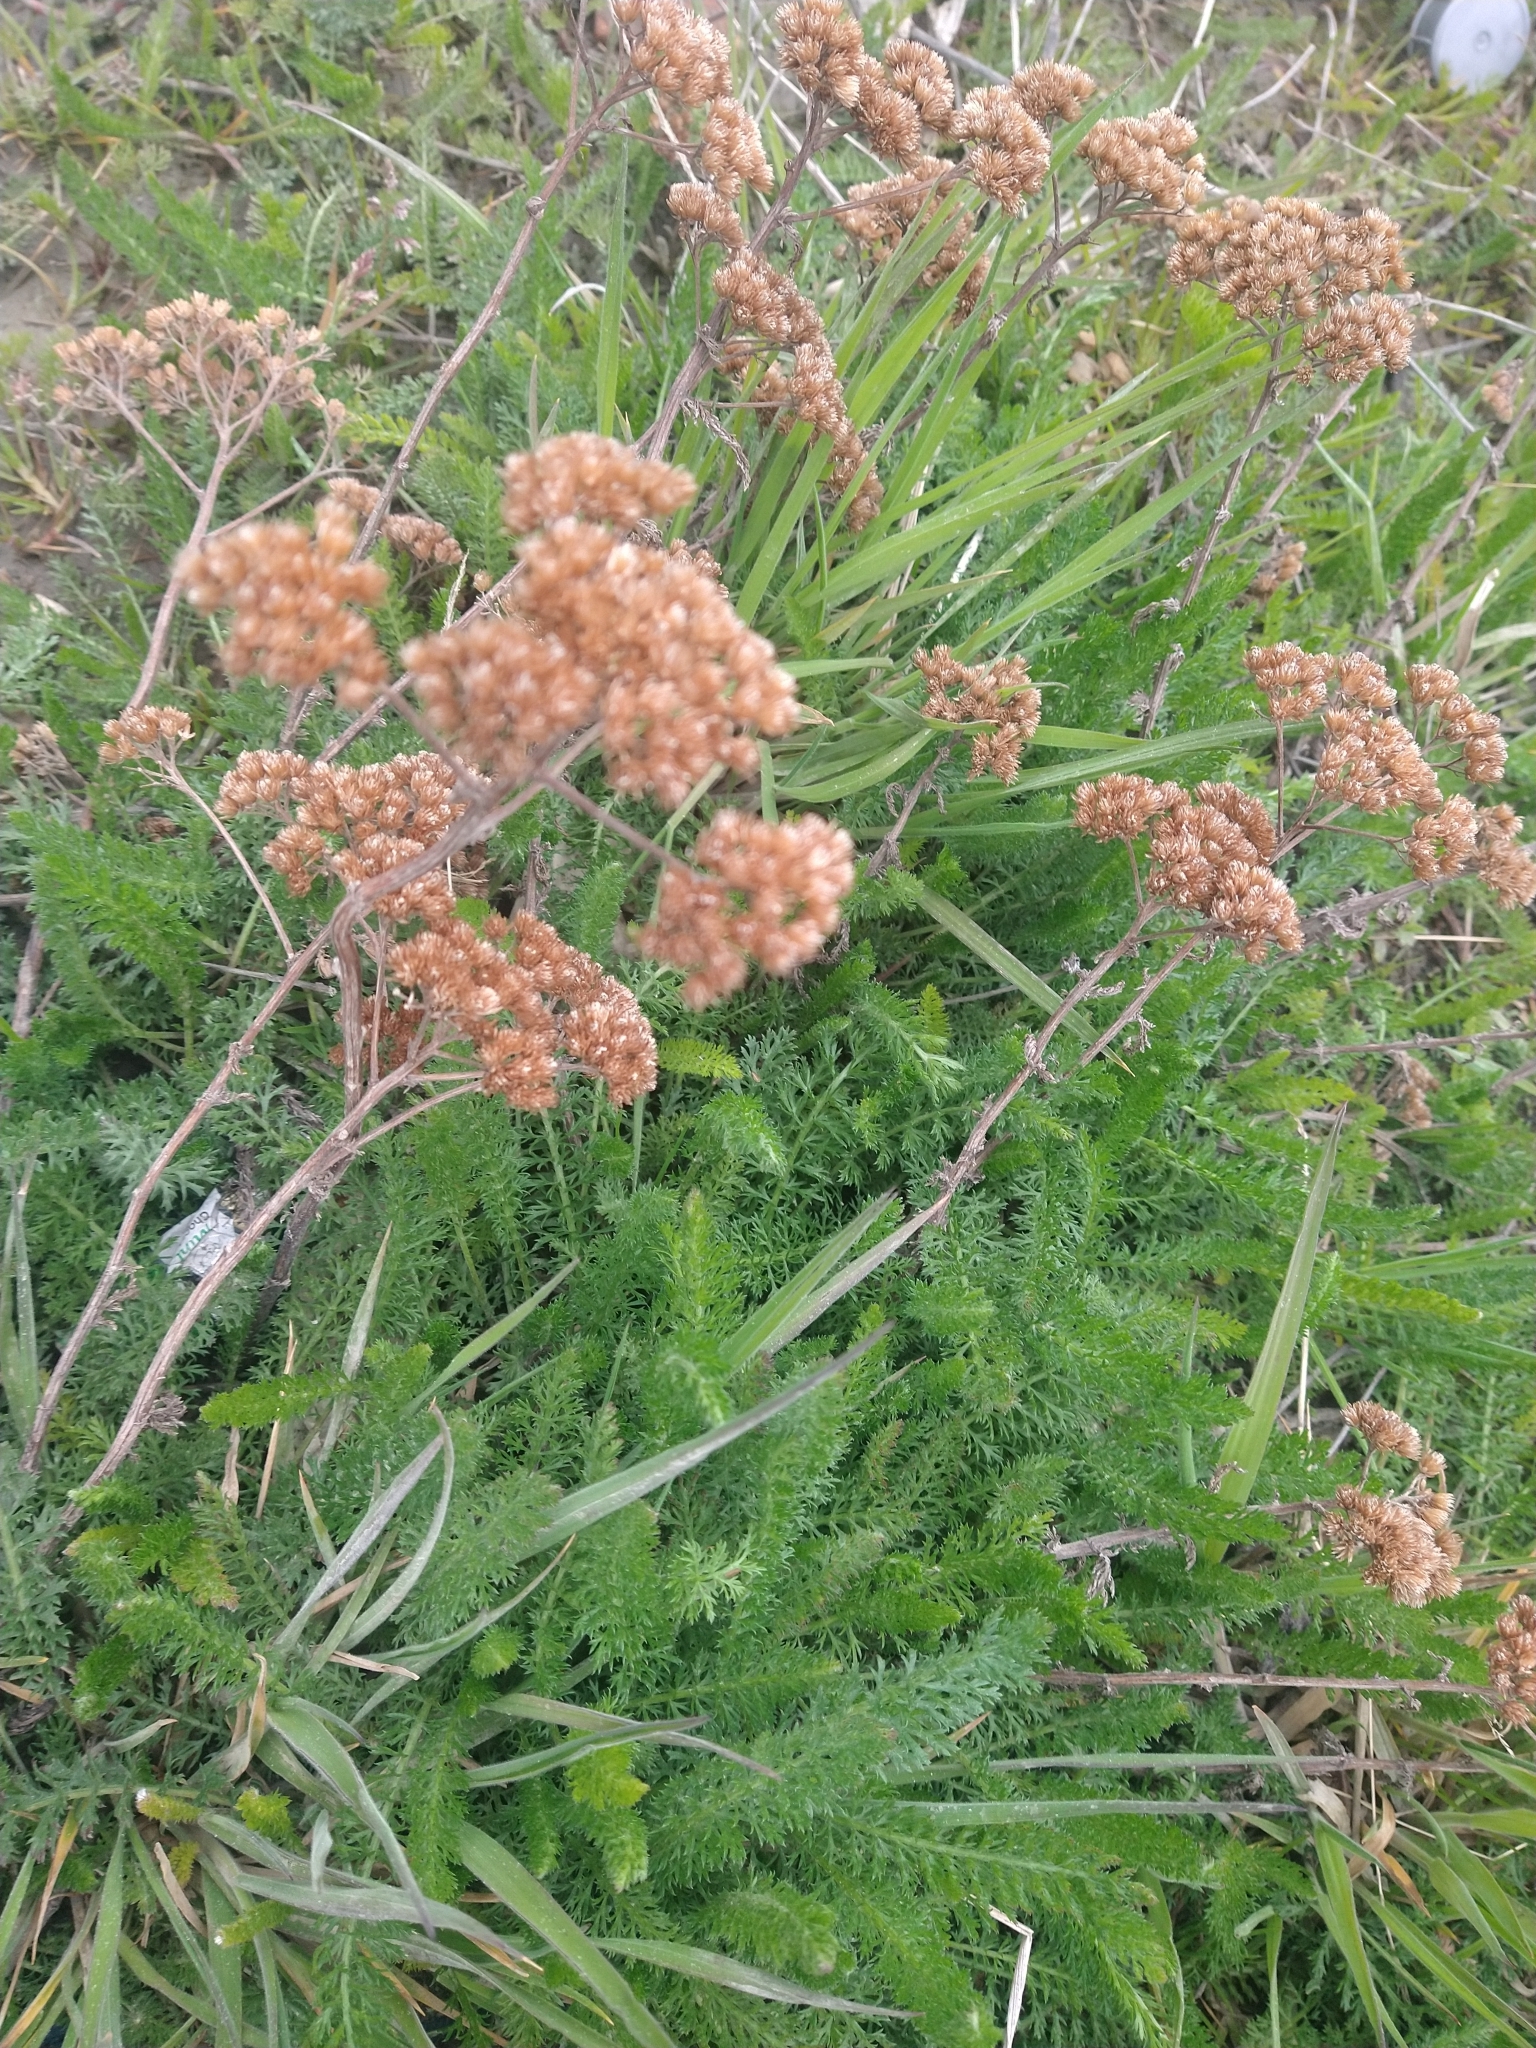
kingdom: Plantae
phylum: Tracheophyta
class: Magnoliopsida
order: Asterales
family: Asteraceae
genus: Achillea
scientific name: Achillea millefolium
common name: Yarrow
